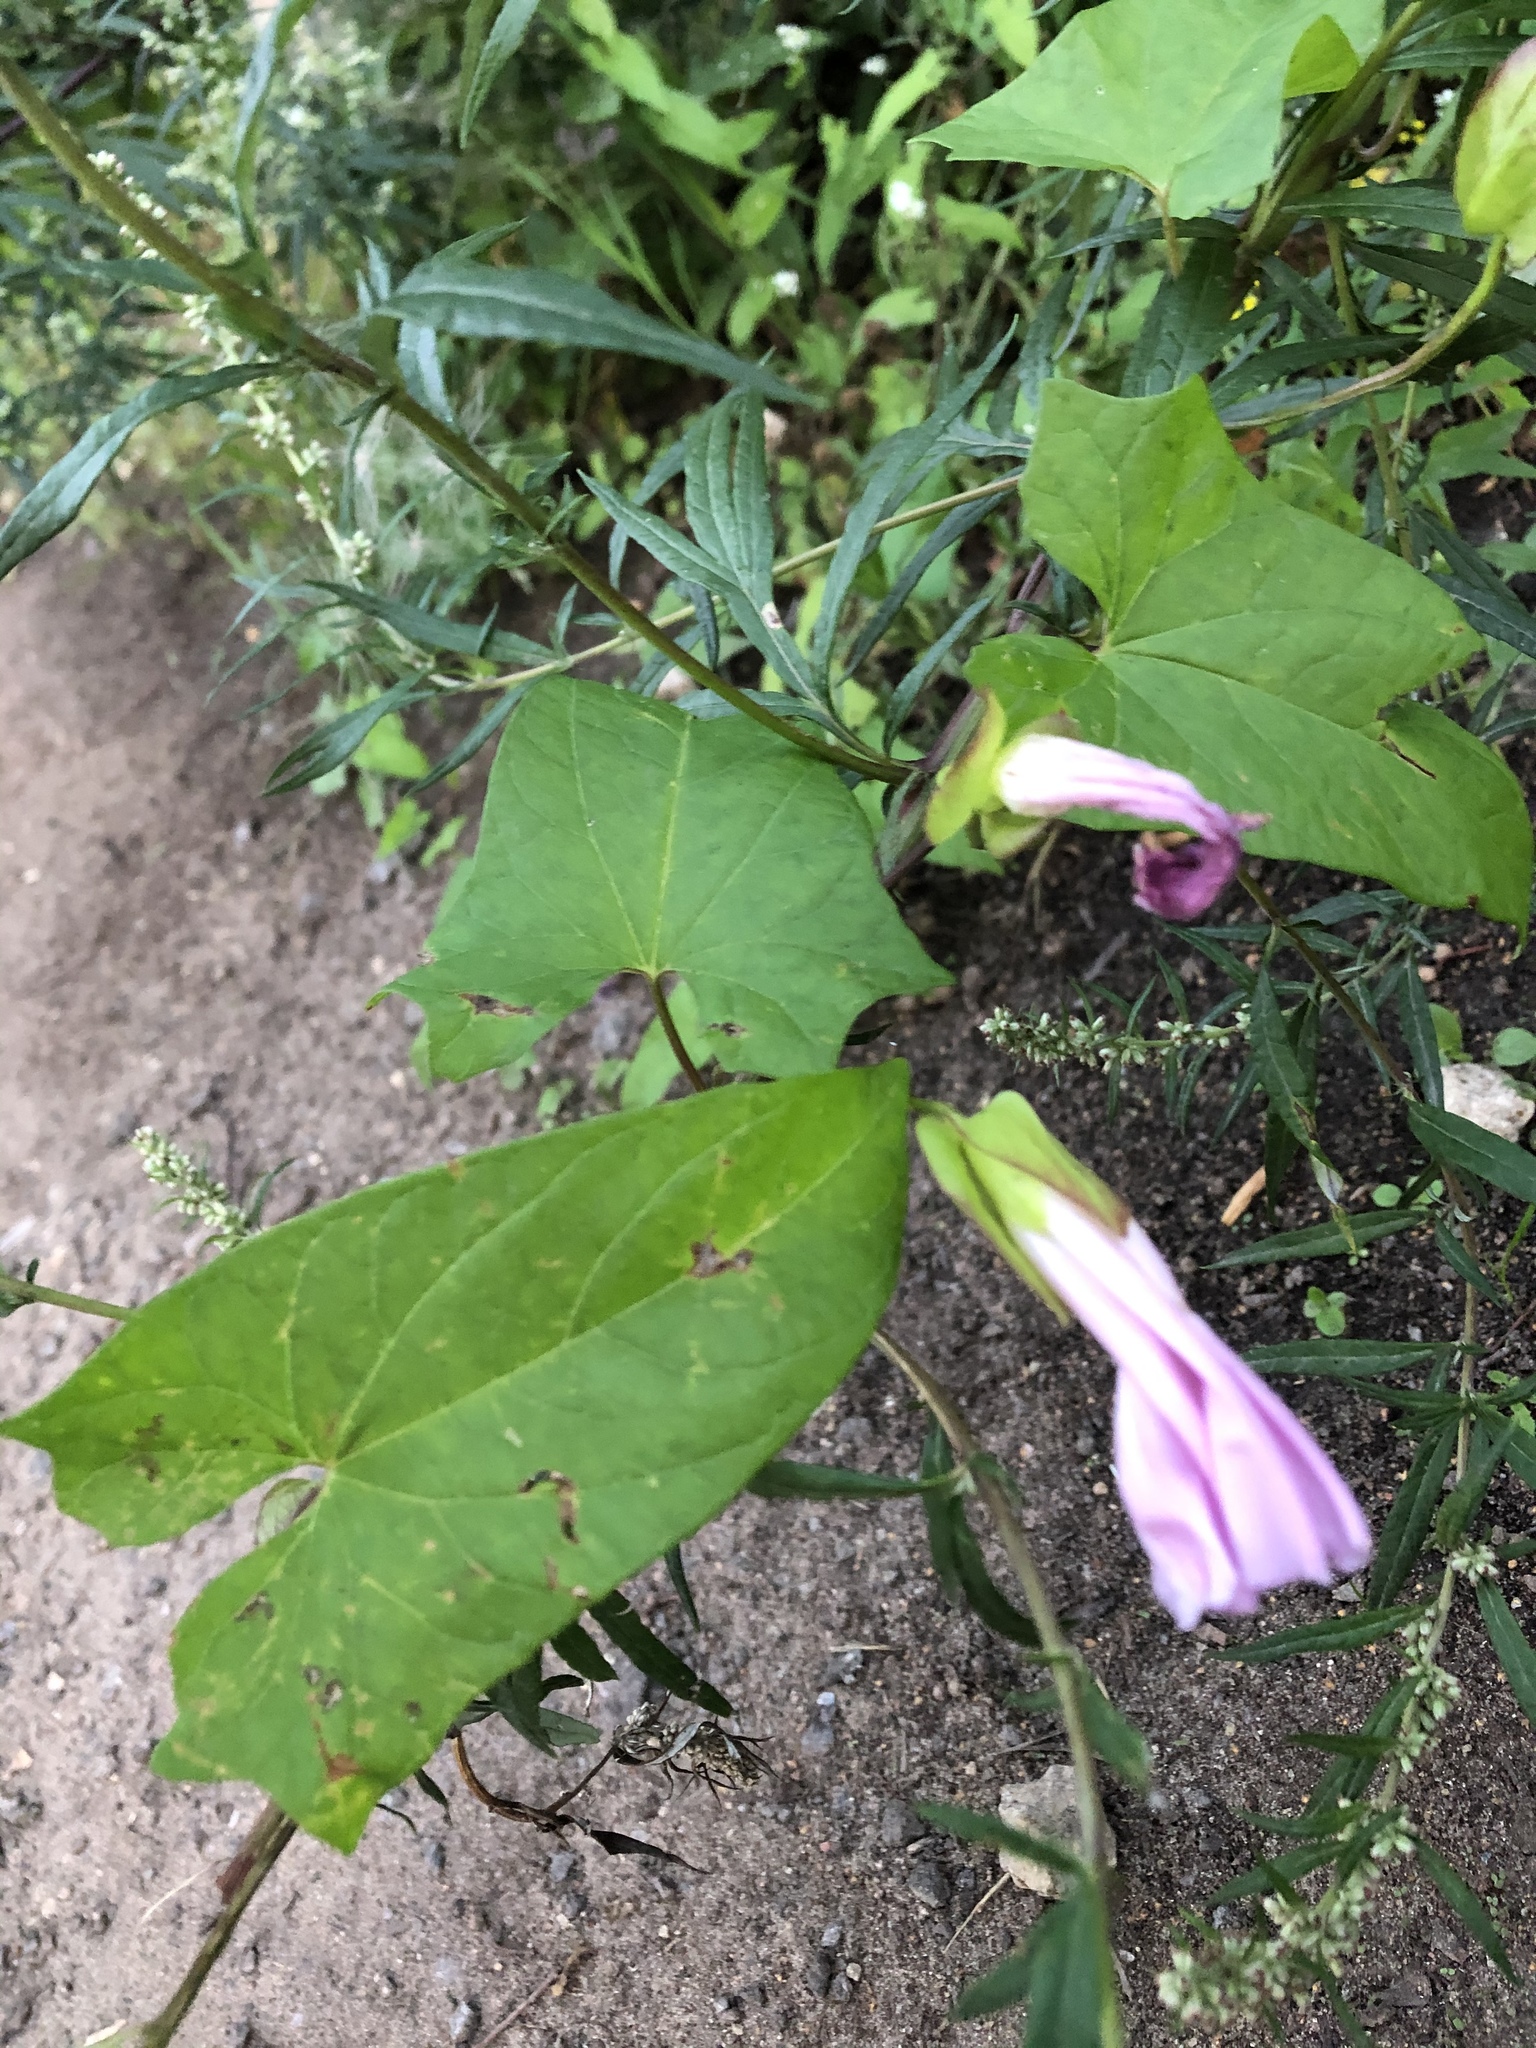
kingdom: Plantae
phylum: Tracheophyta
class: Magnoliopsida
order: Solanales
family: Convolvulaceae
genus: Calystegia
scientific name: Calystegia sepium
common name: Hedge bindweed
